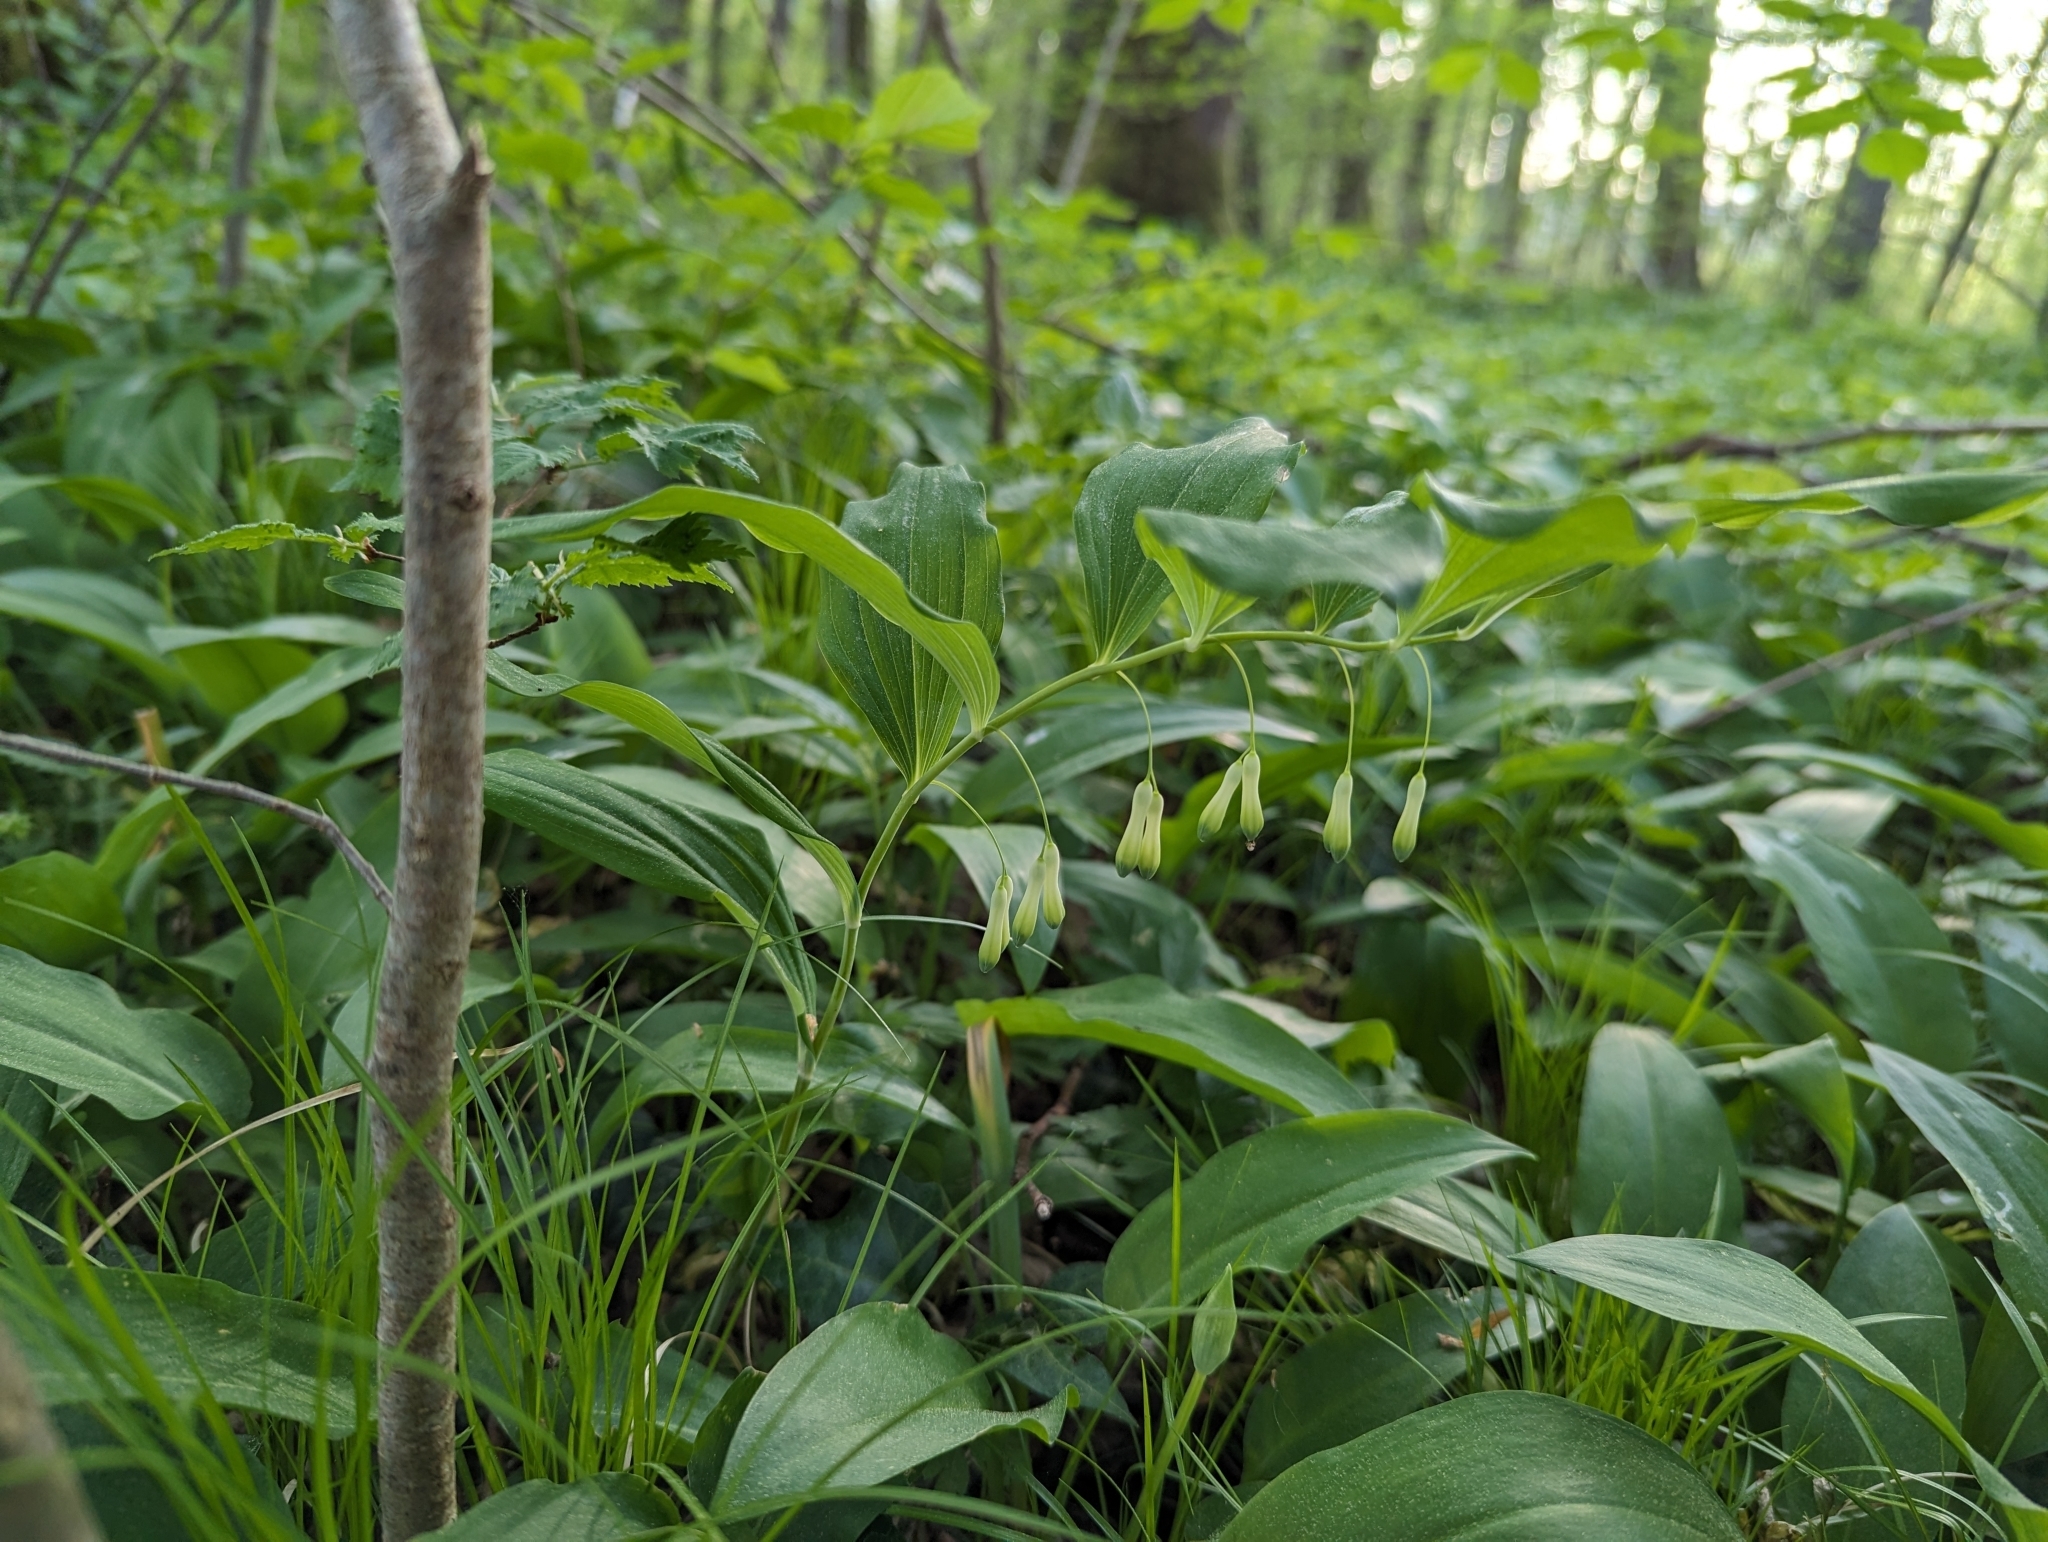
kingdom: Plantae
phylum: Tracheophyta
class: Liliopsida
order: Asparagales
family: Asparagaceae
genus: Polygonatum
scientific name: Polygonatum multiflorum
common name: Solomon's-seal
